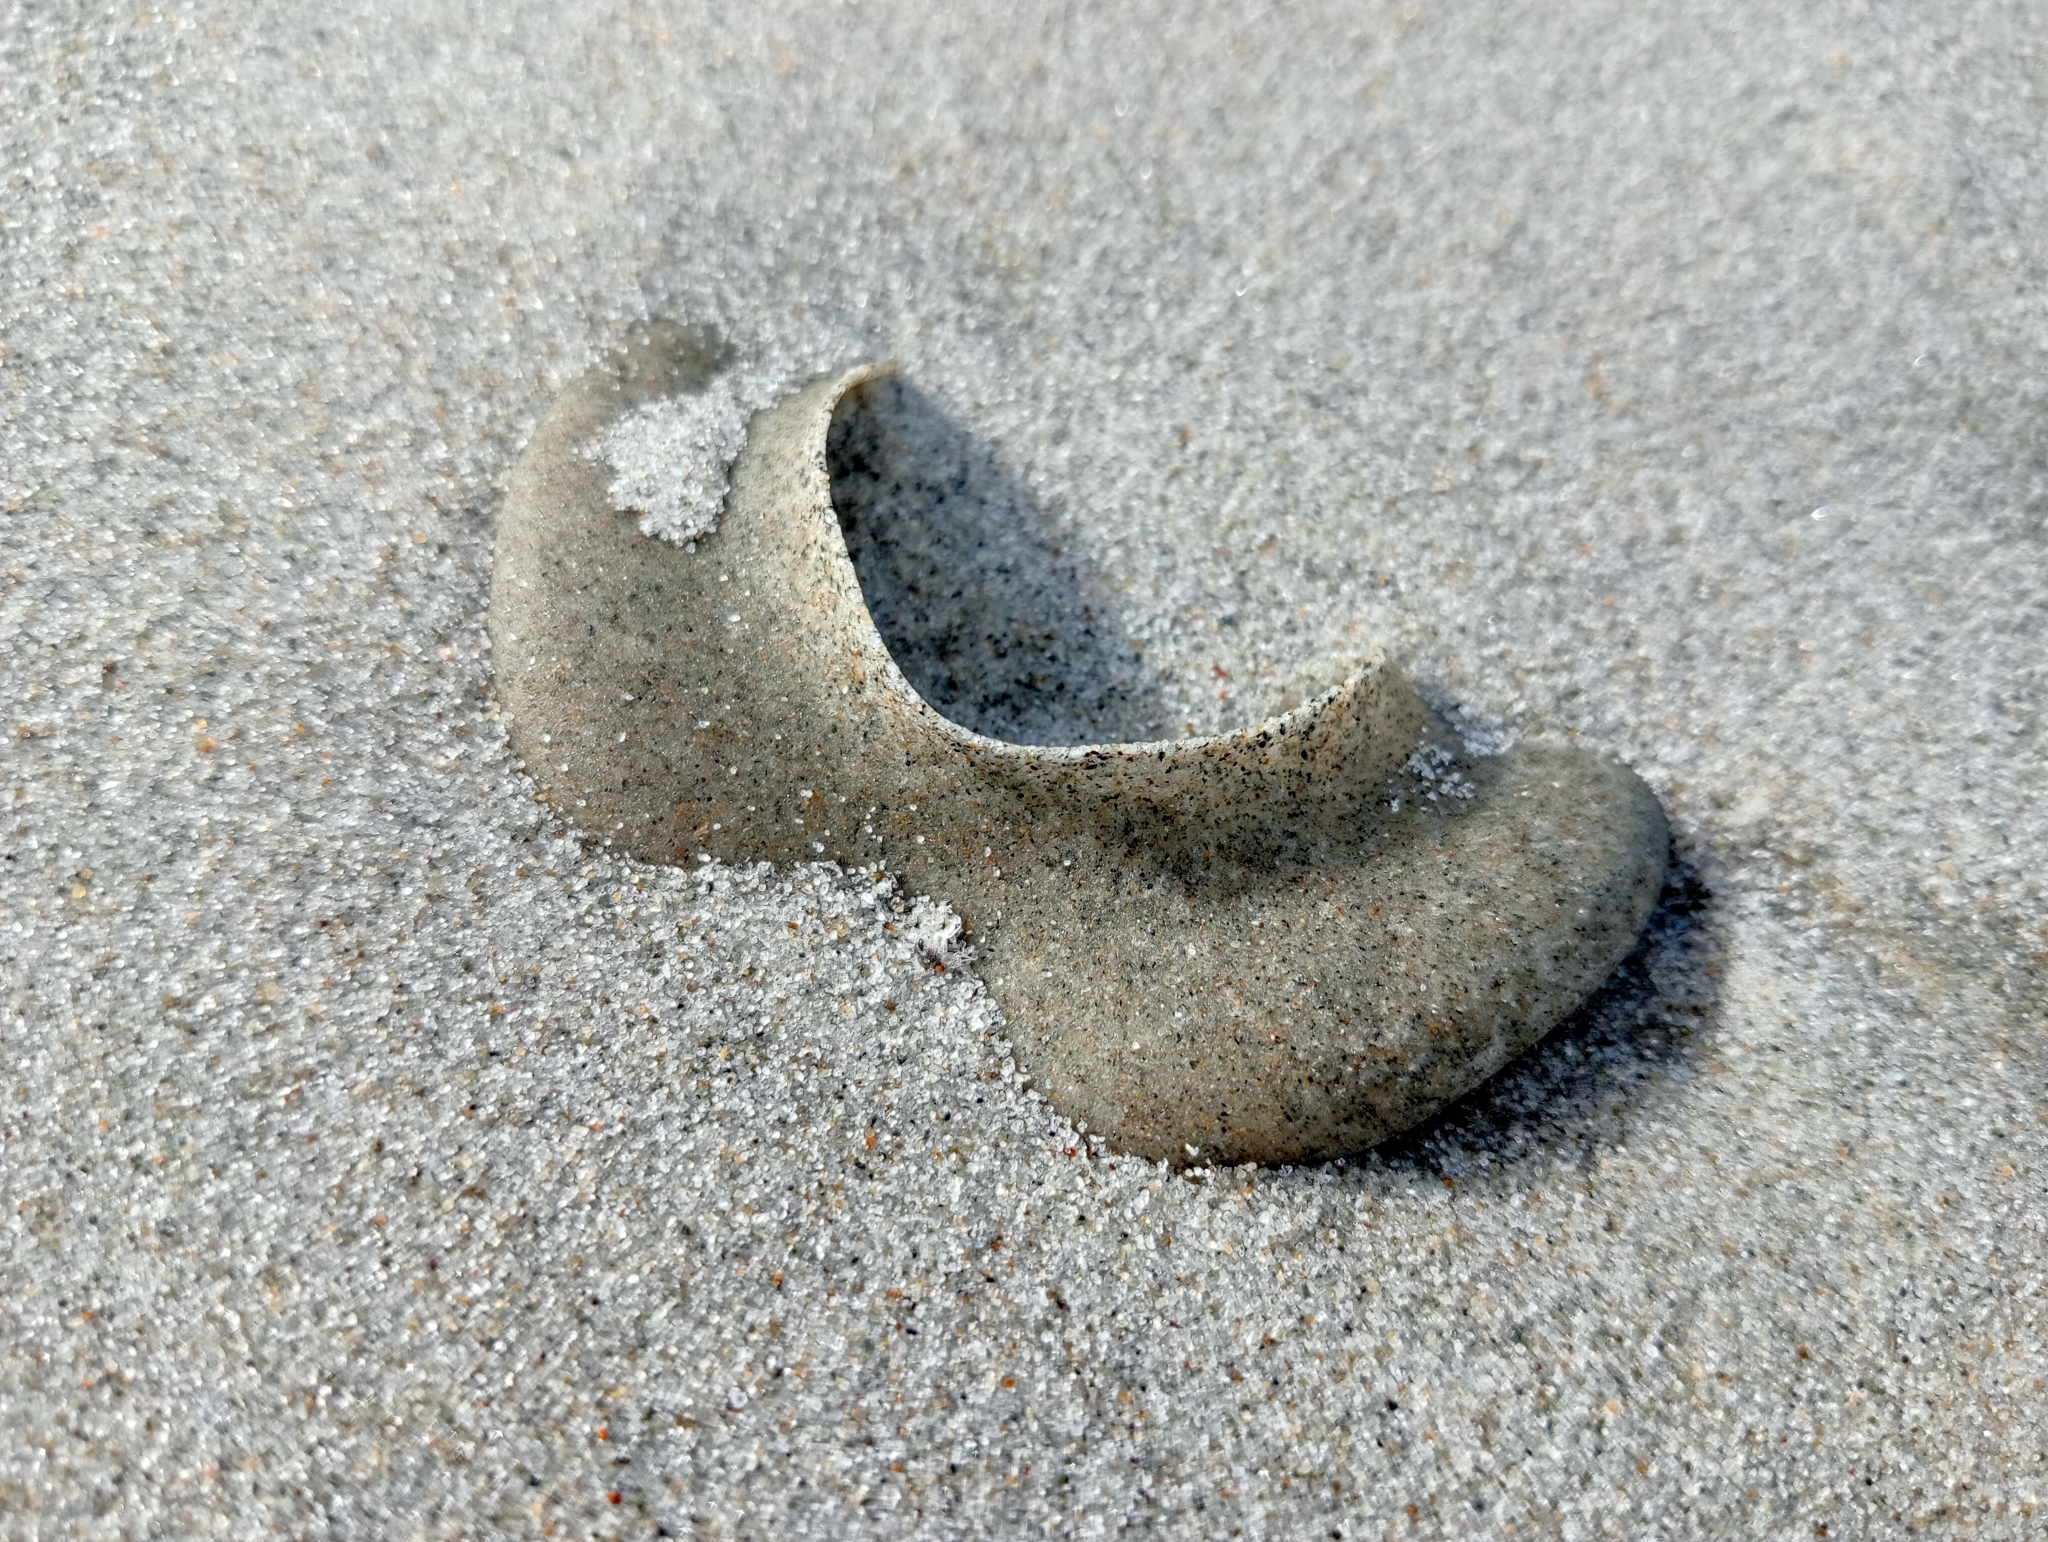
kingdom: Animalia
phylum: Mollusca
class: Gastropoda
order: Littorinimorpha
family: Naticidae
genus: Tanea
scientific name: Tanea zelandica
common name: New zealand moonsnail
